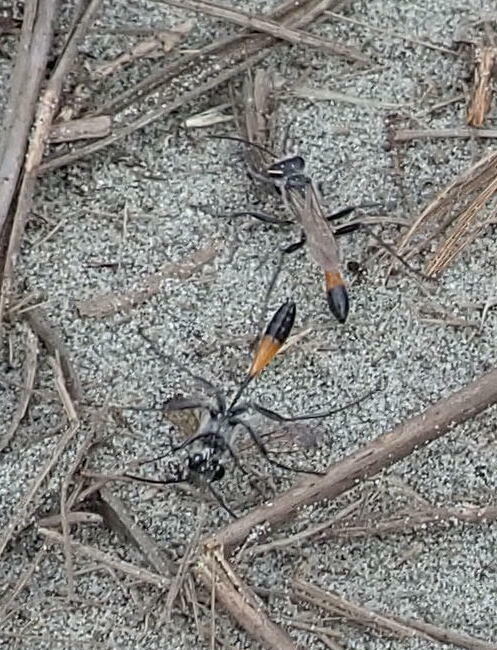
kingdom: Animalia
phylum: Arthropoda
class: Insecta
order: Hymenoptera
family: Sphecidae
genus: Podalonia
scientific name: Podalonia tydei
